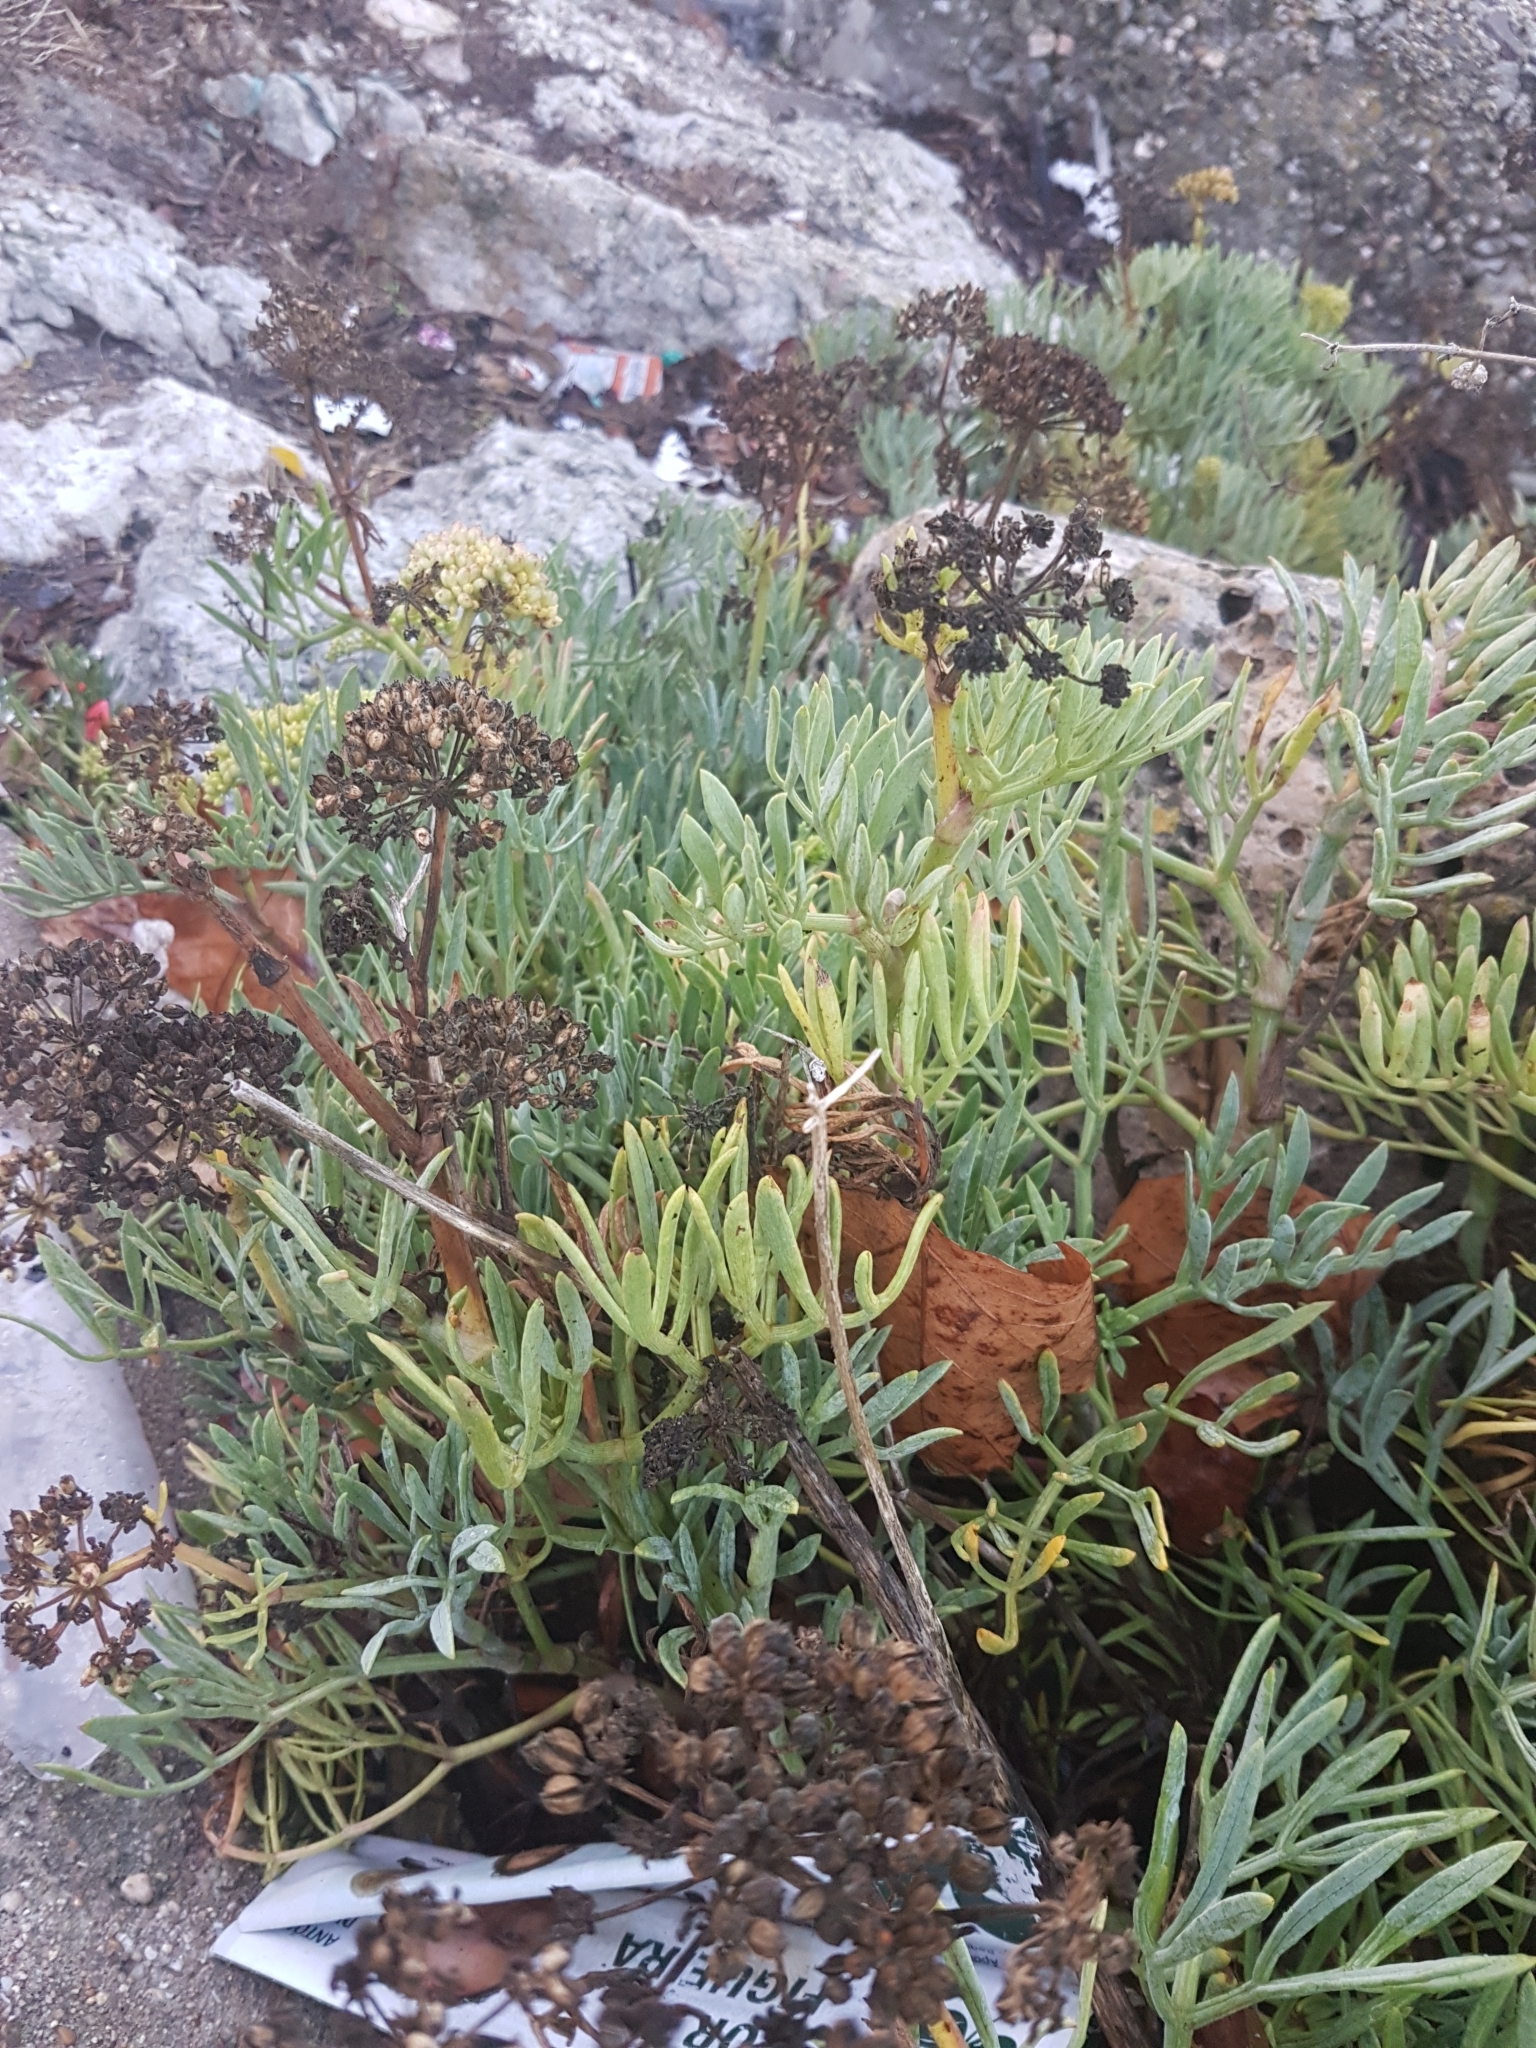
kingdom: Plantae
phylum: Tracheophyta
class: Magnoliopsida
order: Apiales
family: Apiaceae
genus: Crithmum
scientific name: Crithmum maritimum
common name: Rock samphire
